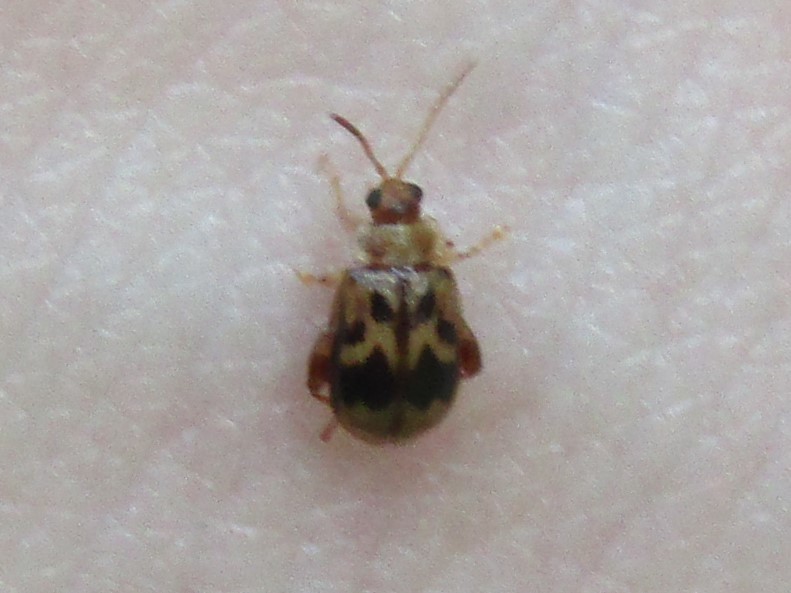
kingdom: Animalia
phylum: Arthropoda
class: Insecta
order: Coleoptera
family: Chrysomelidae
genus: Capraita
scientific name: Capraita sexmaculata
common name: Charlie brown flea beetle
